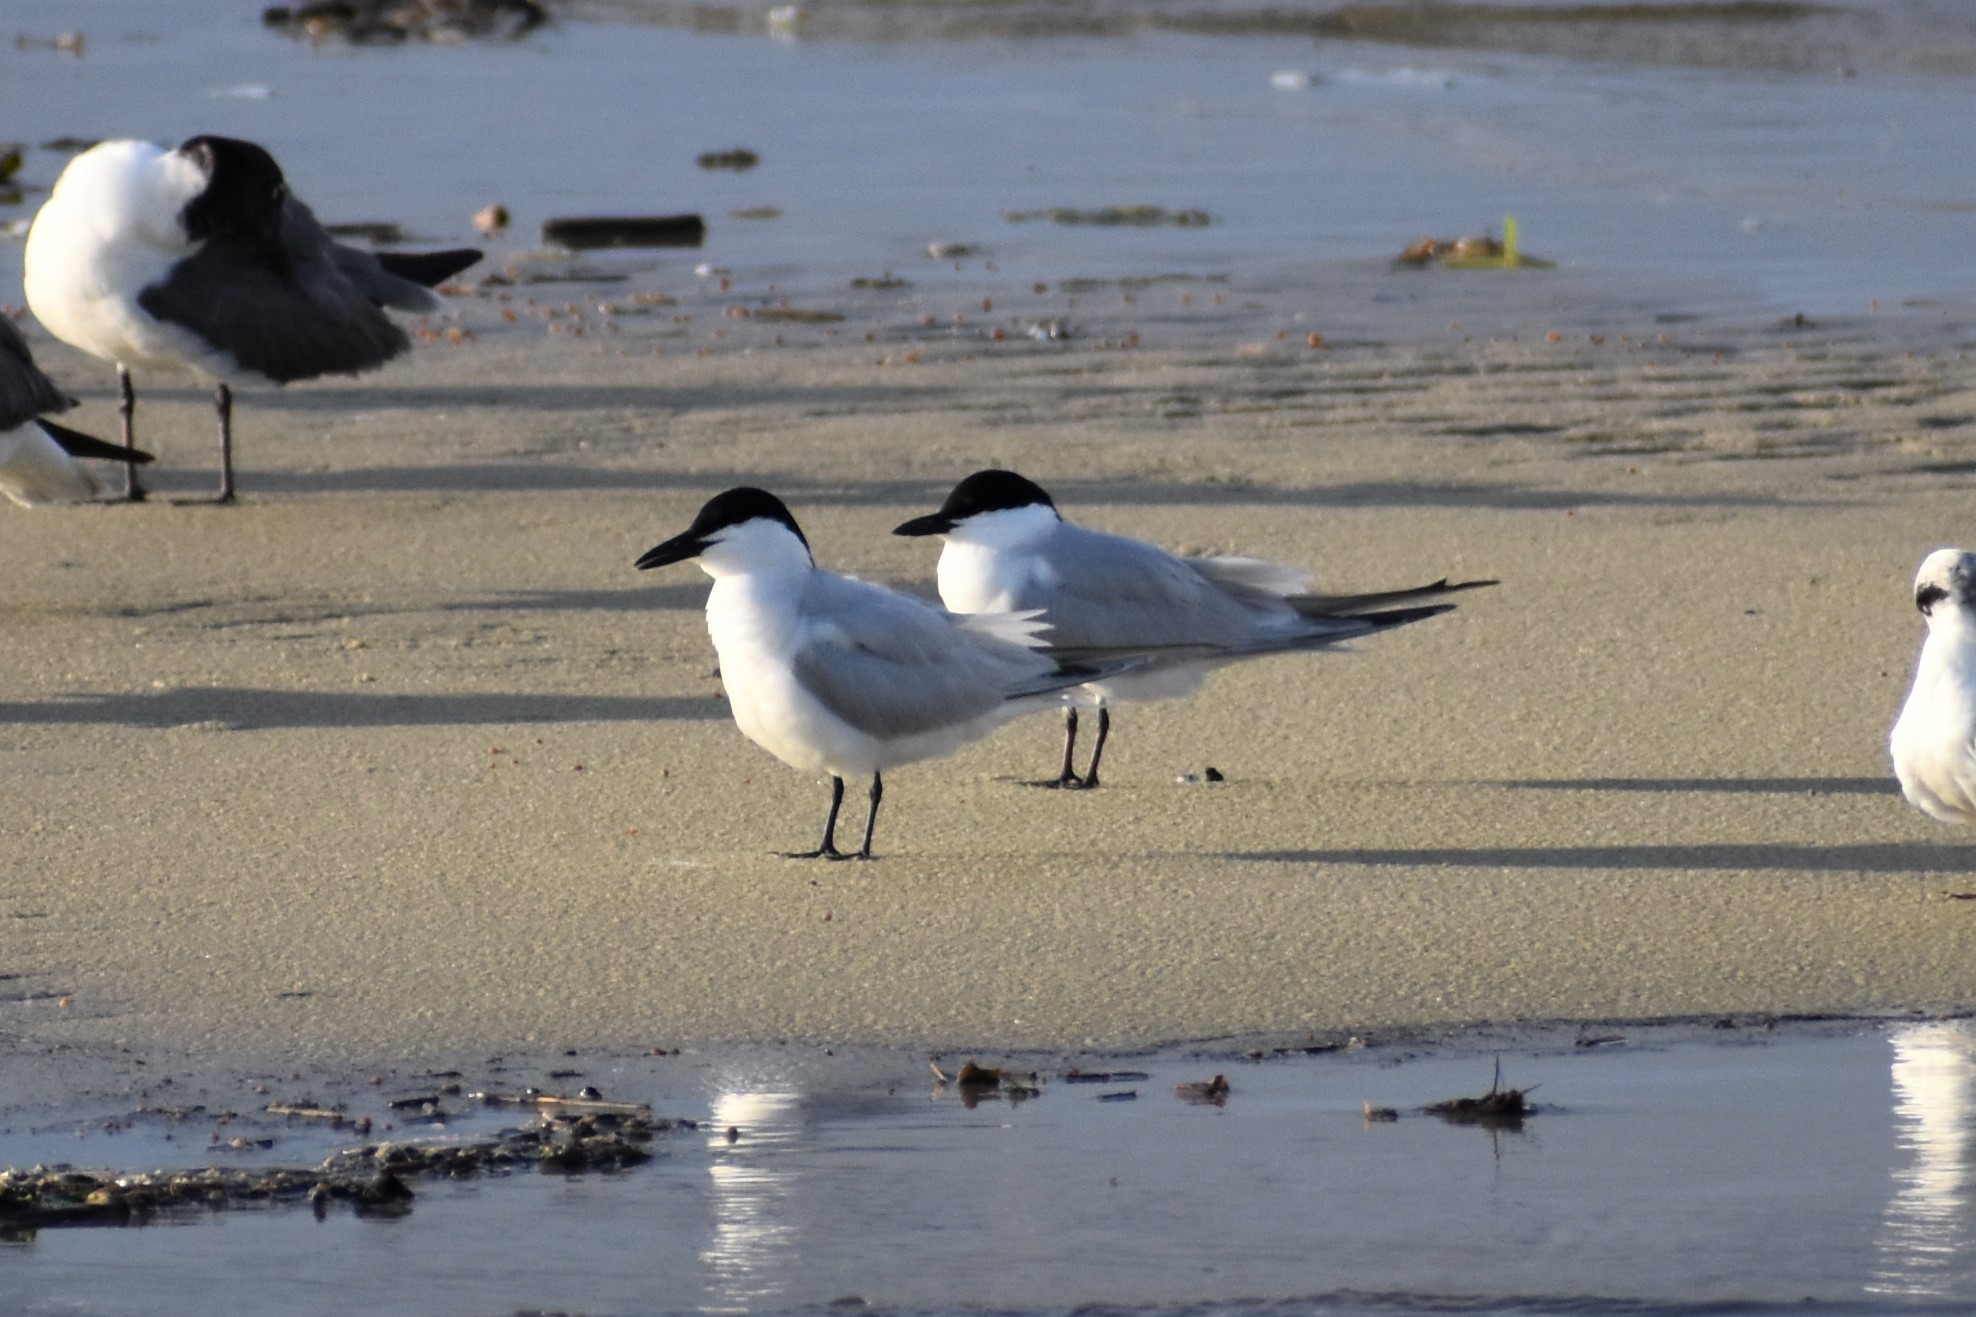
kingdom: Animalia
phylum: Chordata
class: Aves
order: Charadriiformes
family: Laridae
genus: Gelochelidon
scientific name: Gelochelidon nilotica
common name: Gull-billed tern
